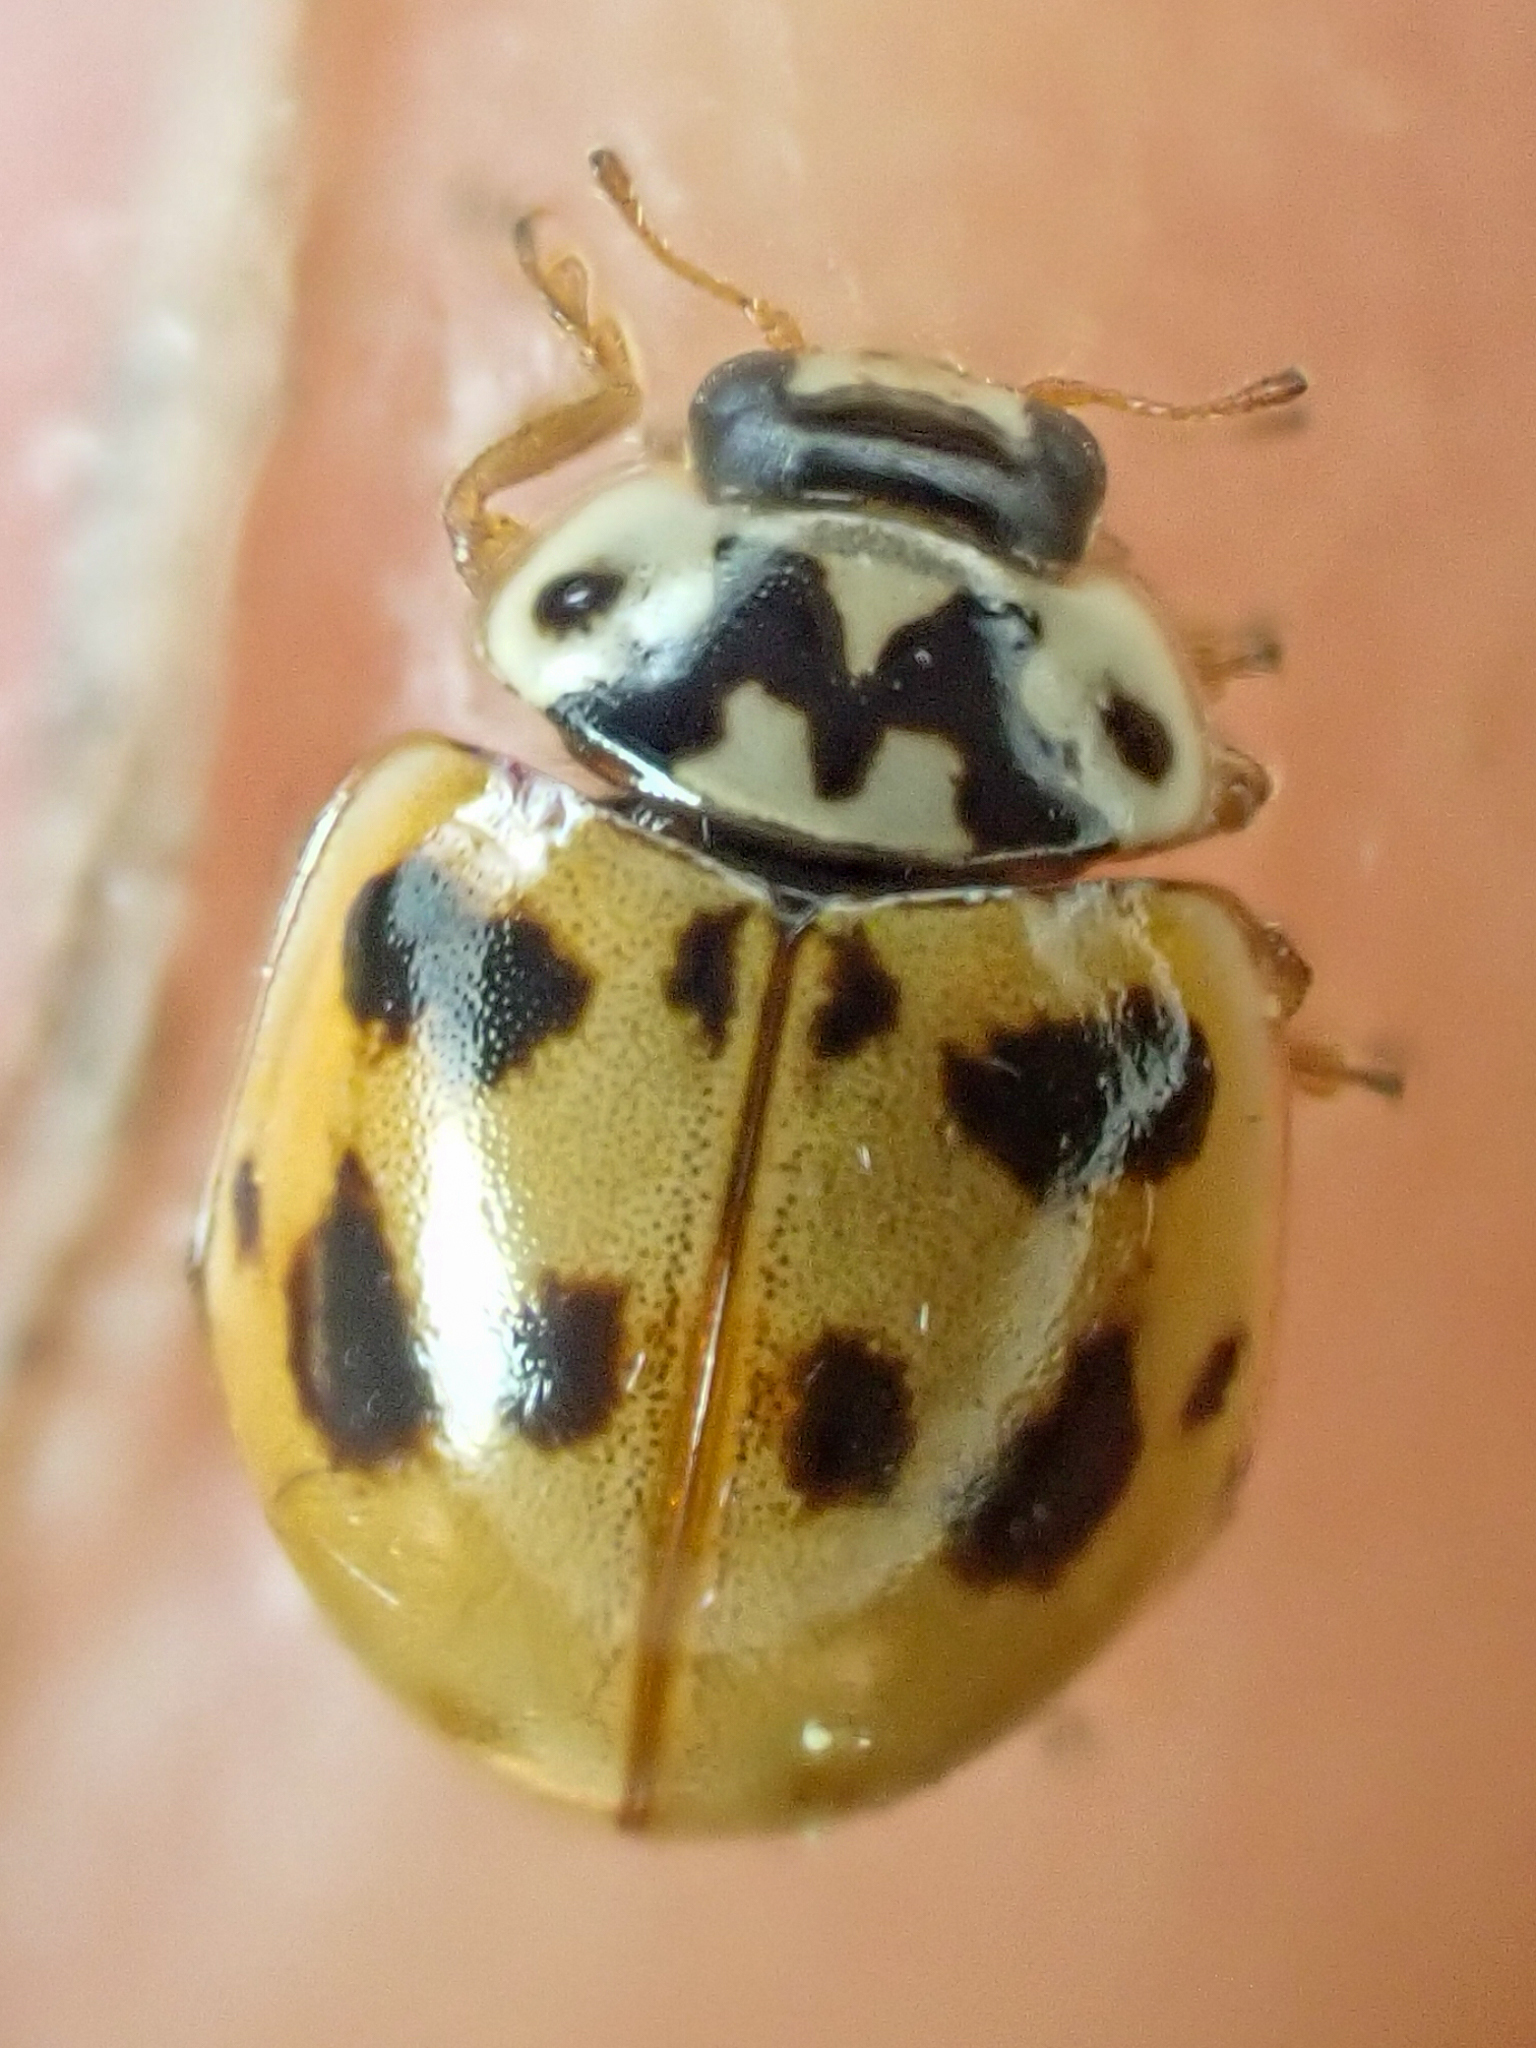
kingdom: Animalia
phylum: Arthropoda
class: Insecta
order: Coleoptera
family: Coccinellidae
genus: Adalia
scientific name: Adalia bipunctata
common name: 2-spot ladybird
